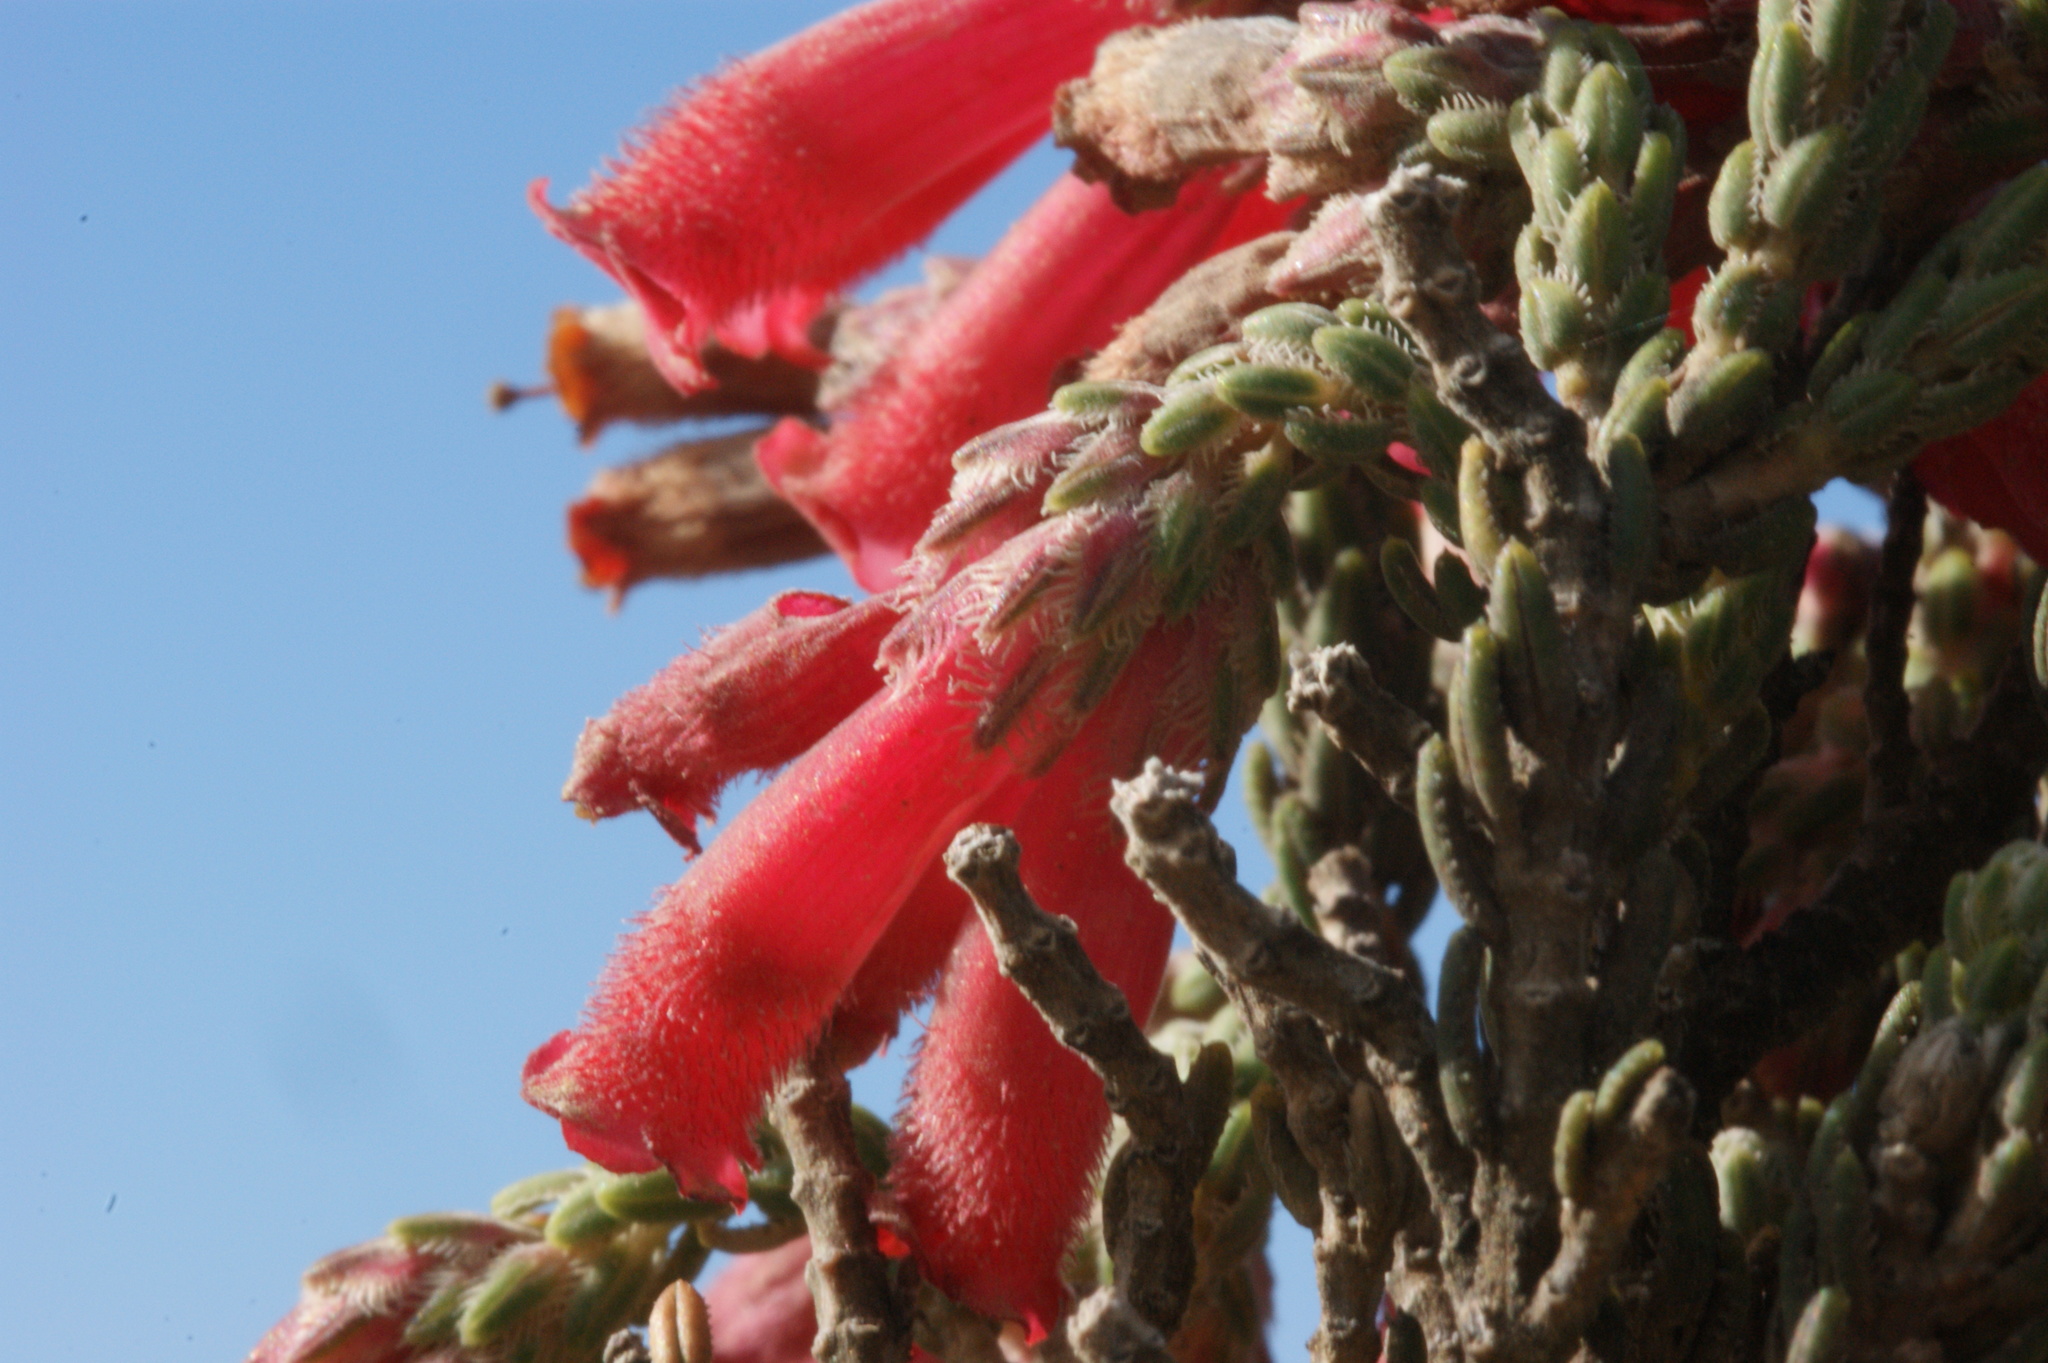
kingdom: Plantae
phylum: Tracheophyta
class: Magnoliopsida
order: Ericales
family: Ericaceae
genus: Erica
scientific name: Erica strigilifolia
